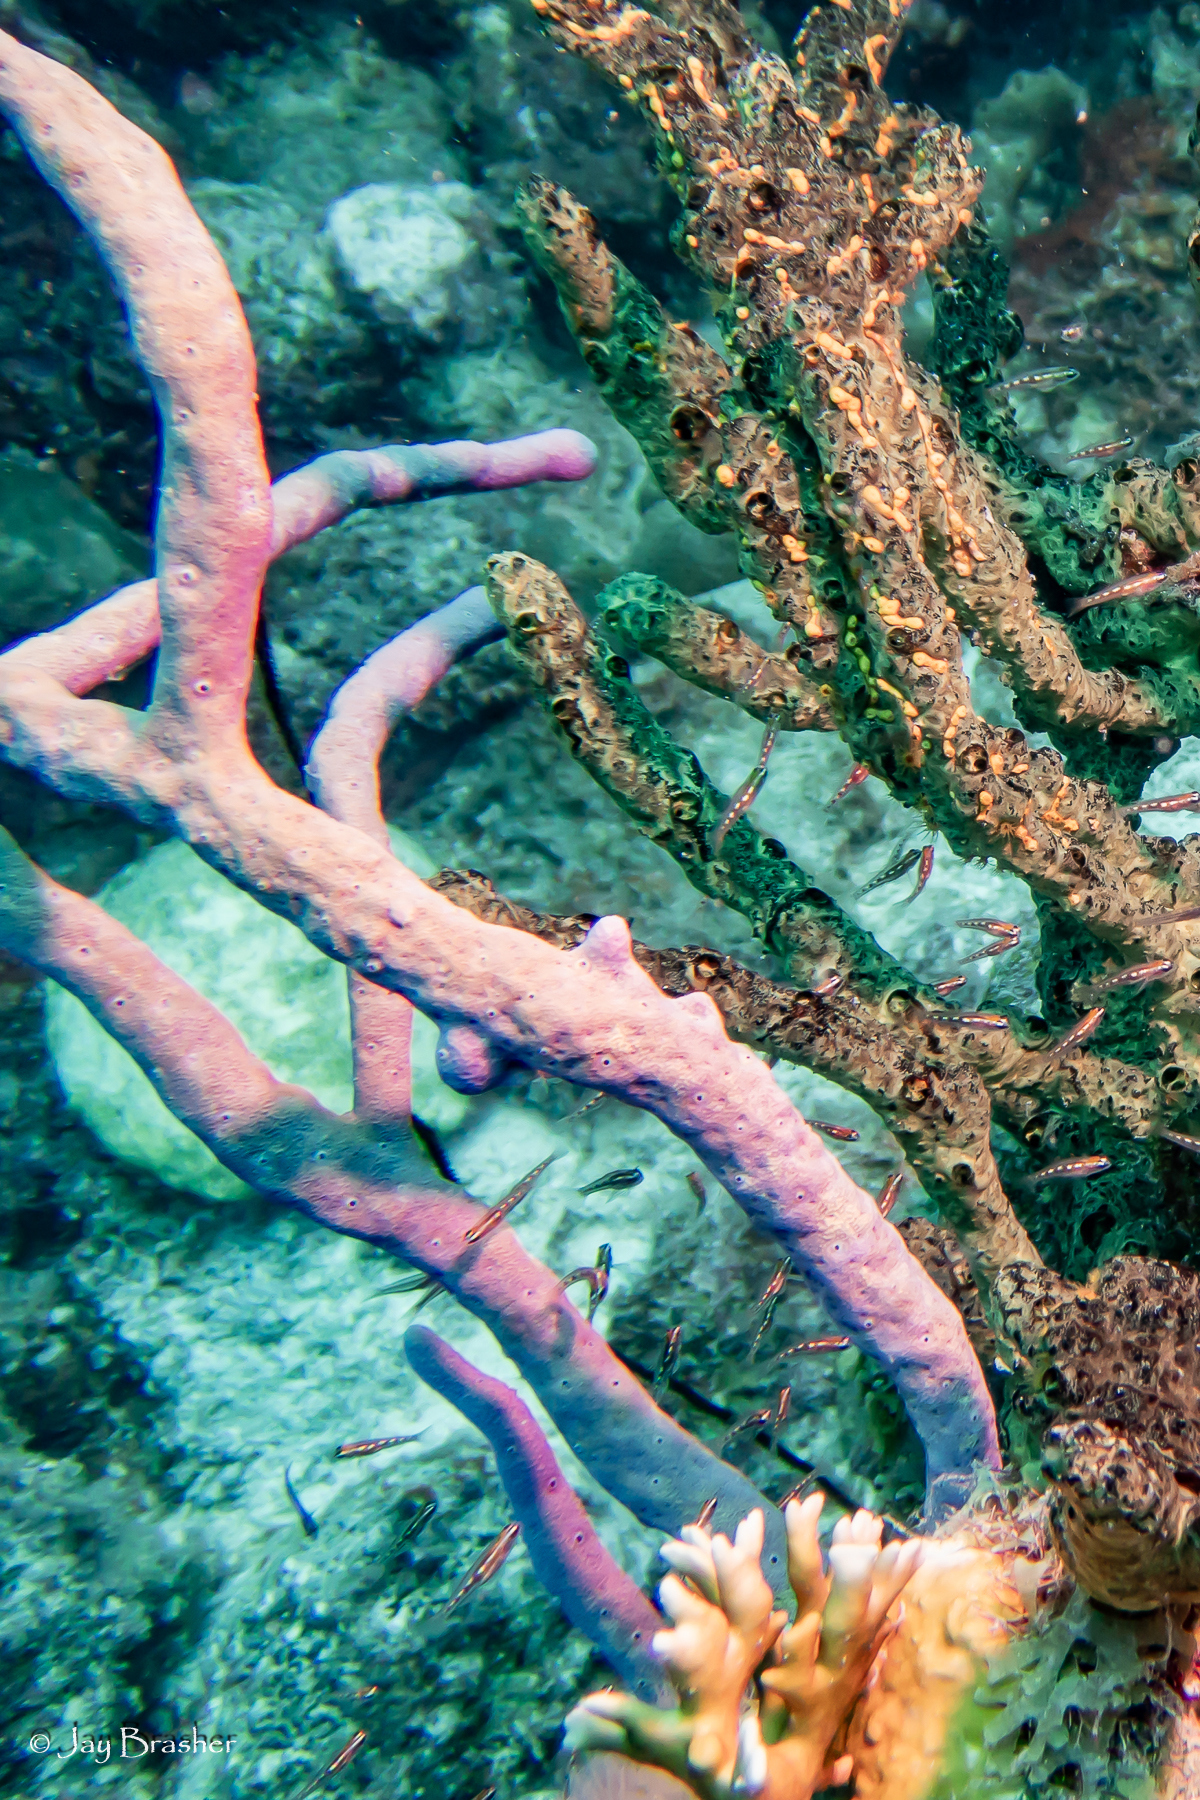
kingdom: Animalia
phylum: Porifera
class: Demospongiae
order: Verongiida
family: Aplysinidae
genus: Aplysina
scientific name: Aplysina cauliformis
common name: Branching candle sponge
